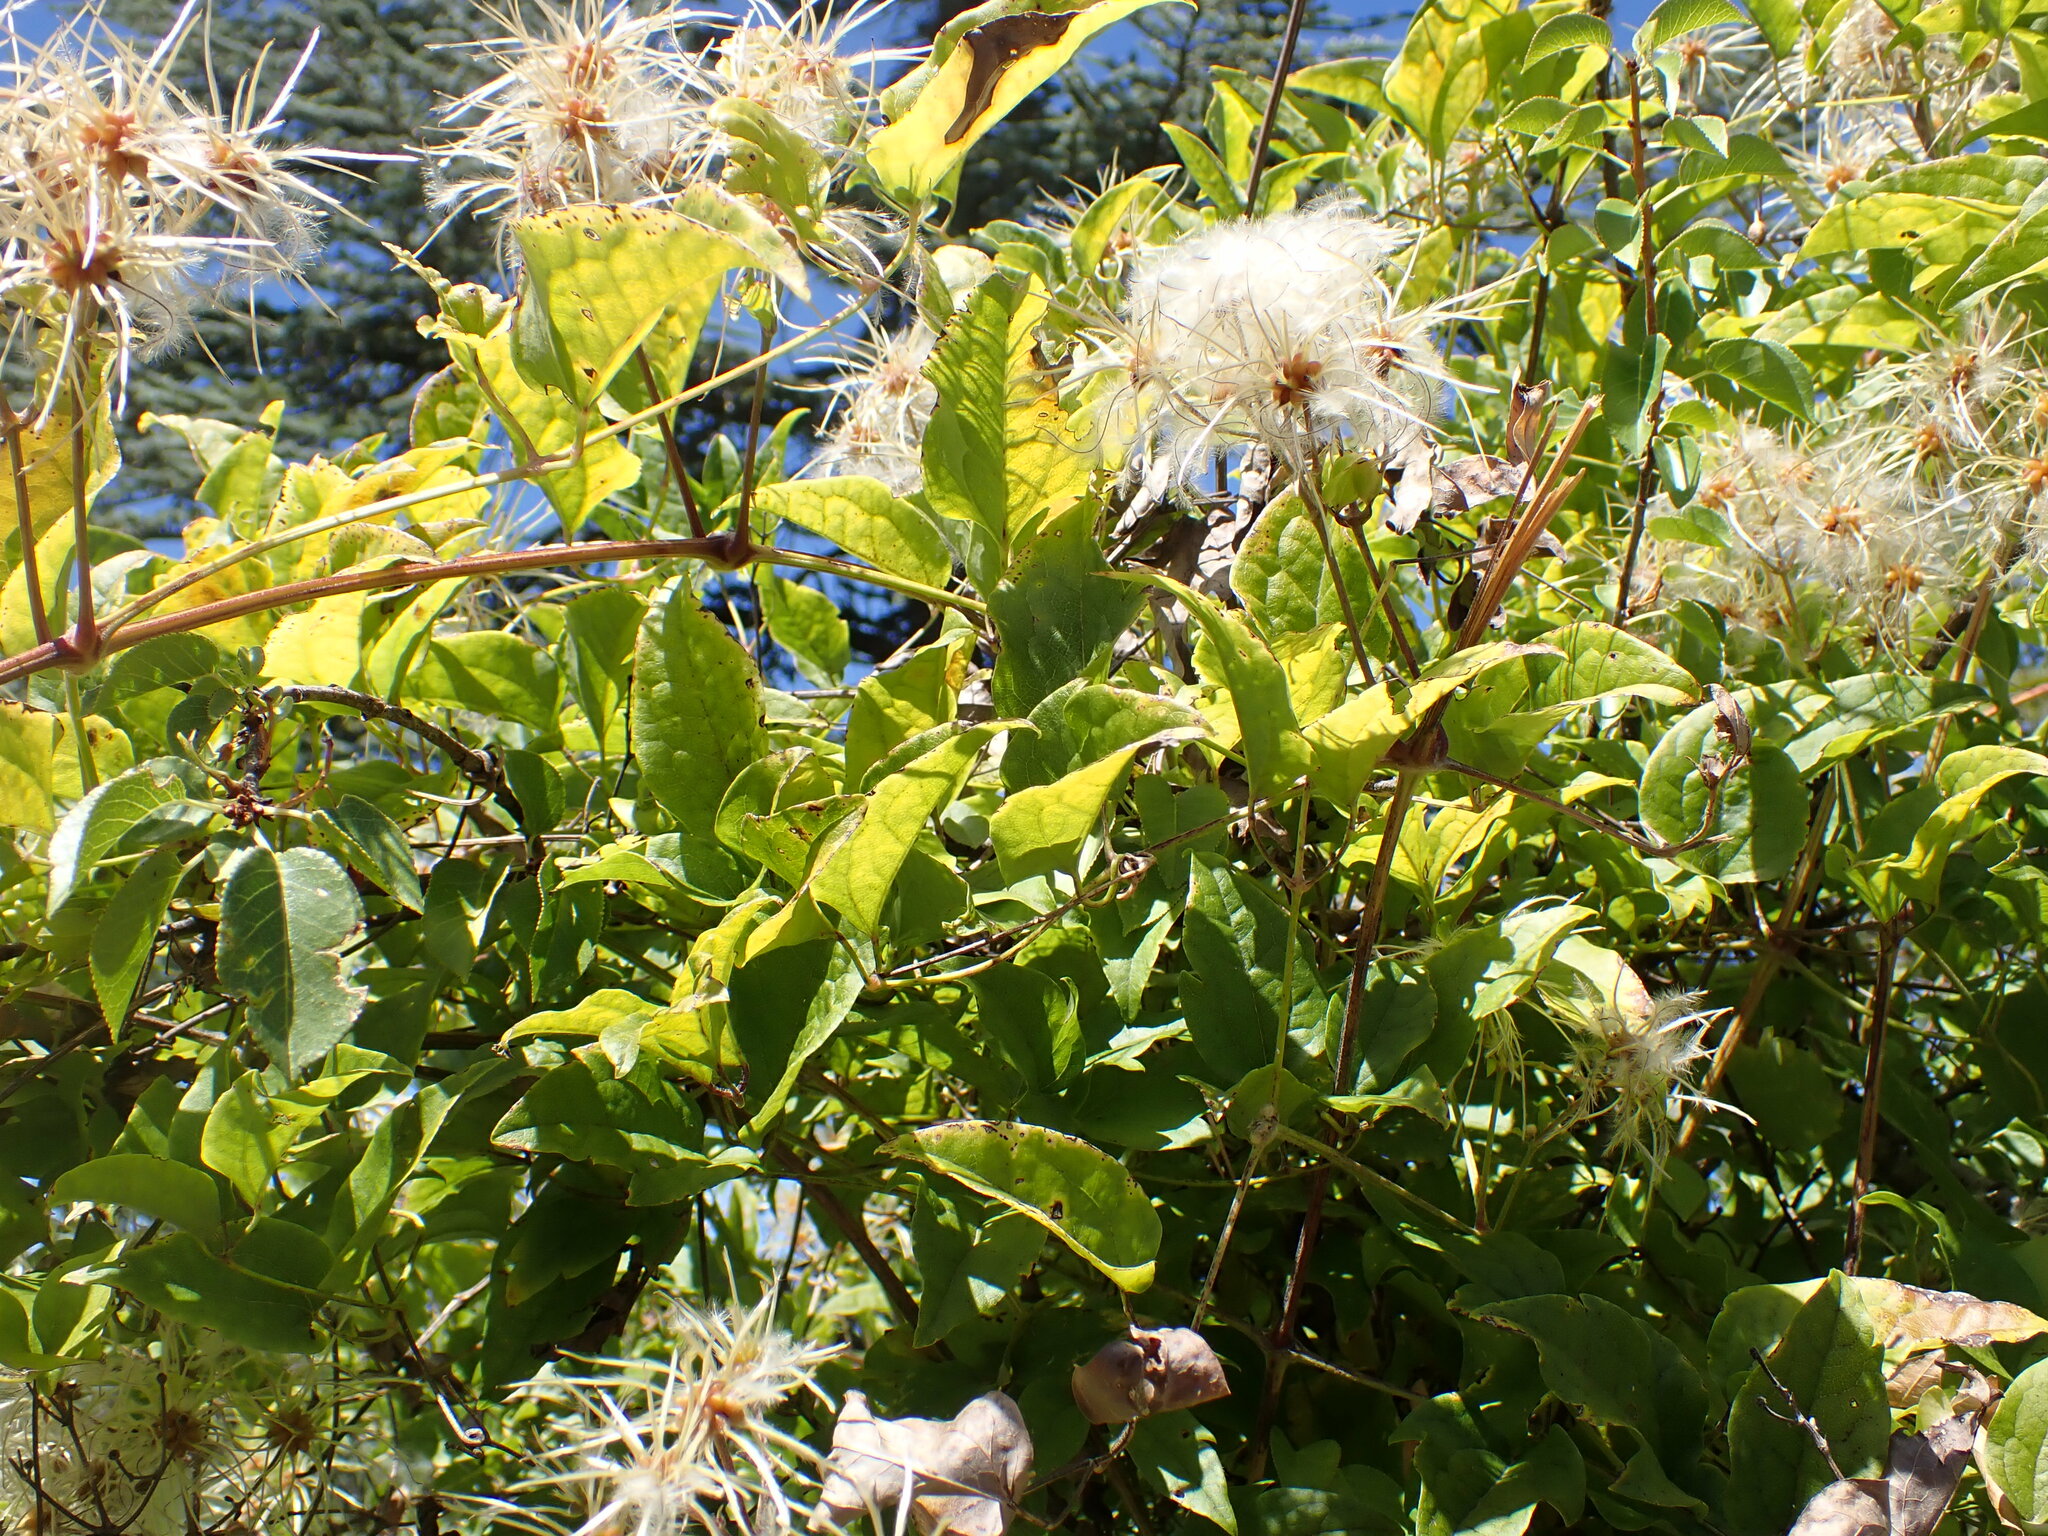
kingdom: Plantae
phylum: Tracheophyta
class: Magnoliopsida
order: Ranunculales
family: Ranunculaceae
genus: Clematis
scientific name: Clematis vitalba
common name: Evergreen clematis
